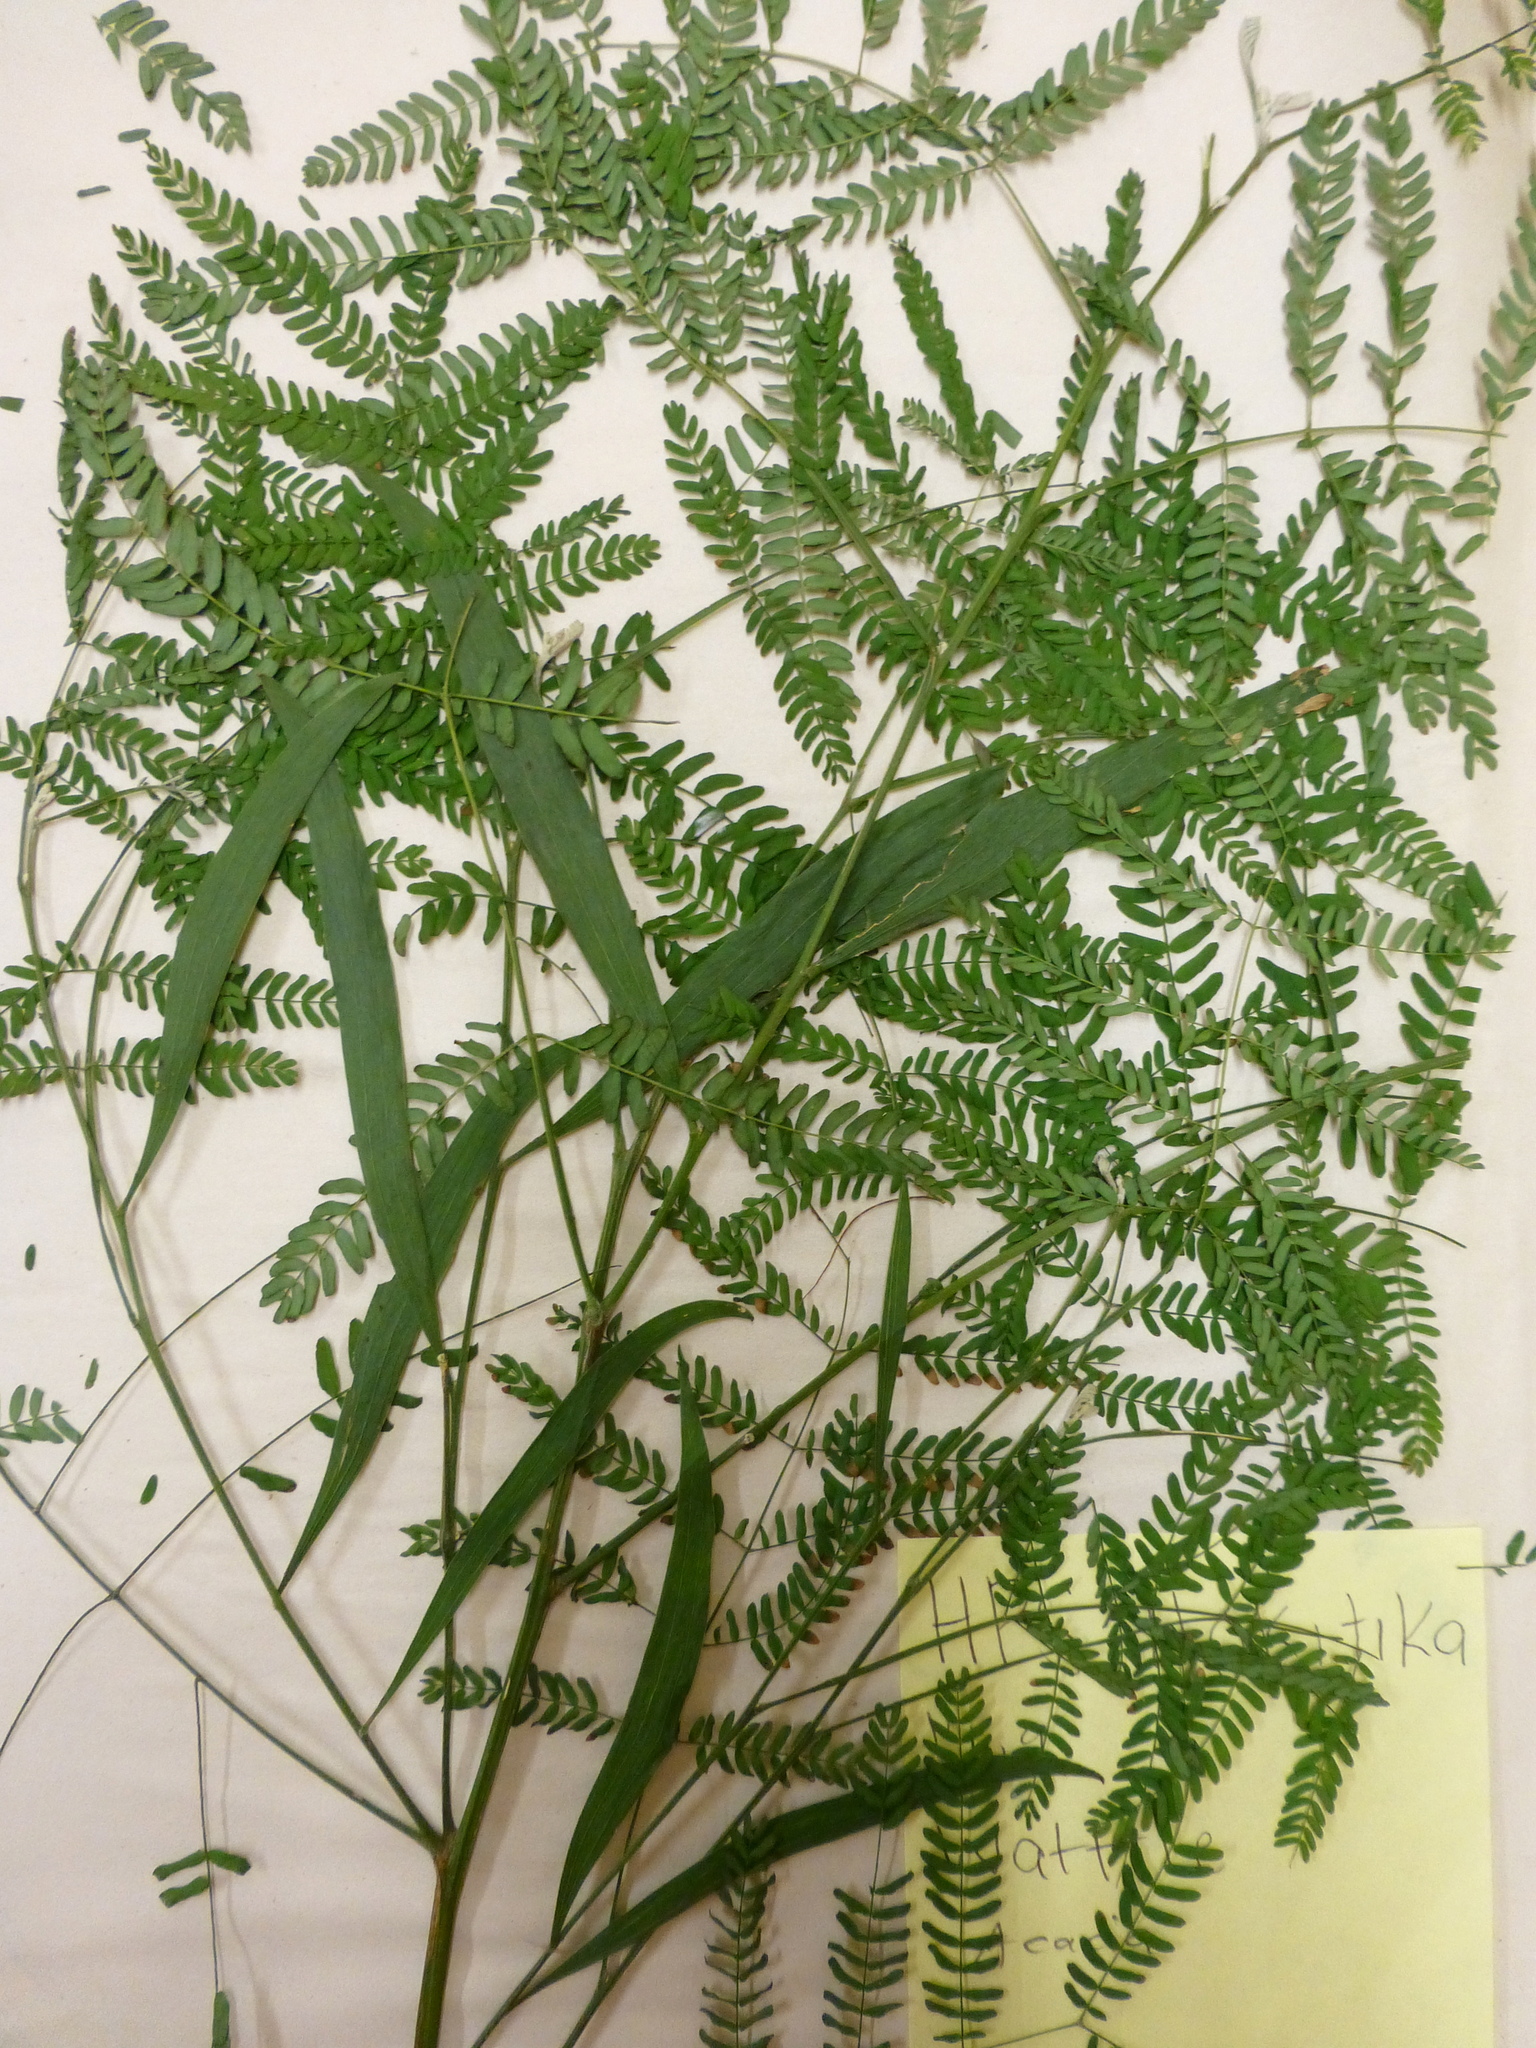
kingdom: Plantae
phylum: Tracheophyta
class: Magnoliopsida
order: Fabales
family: Fabaceae
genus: Acacia
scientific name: Acacia melanoxylon
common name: Blackwood
